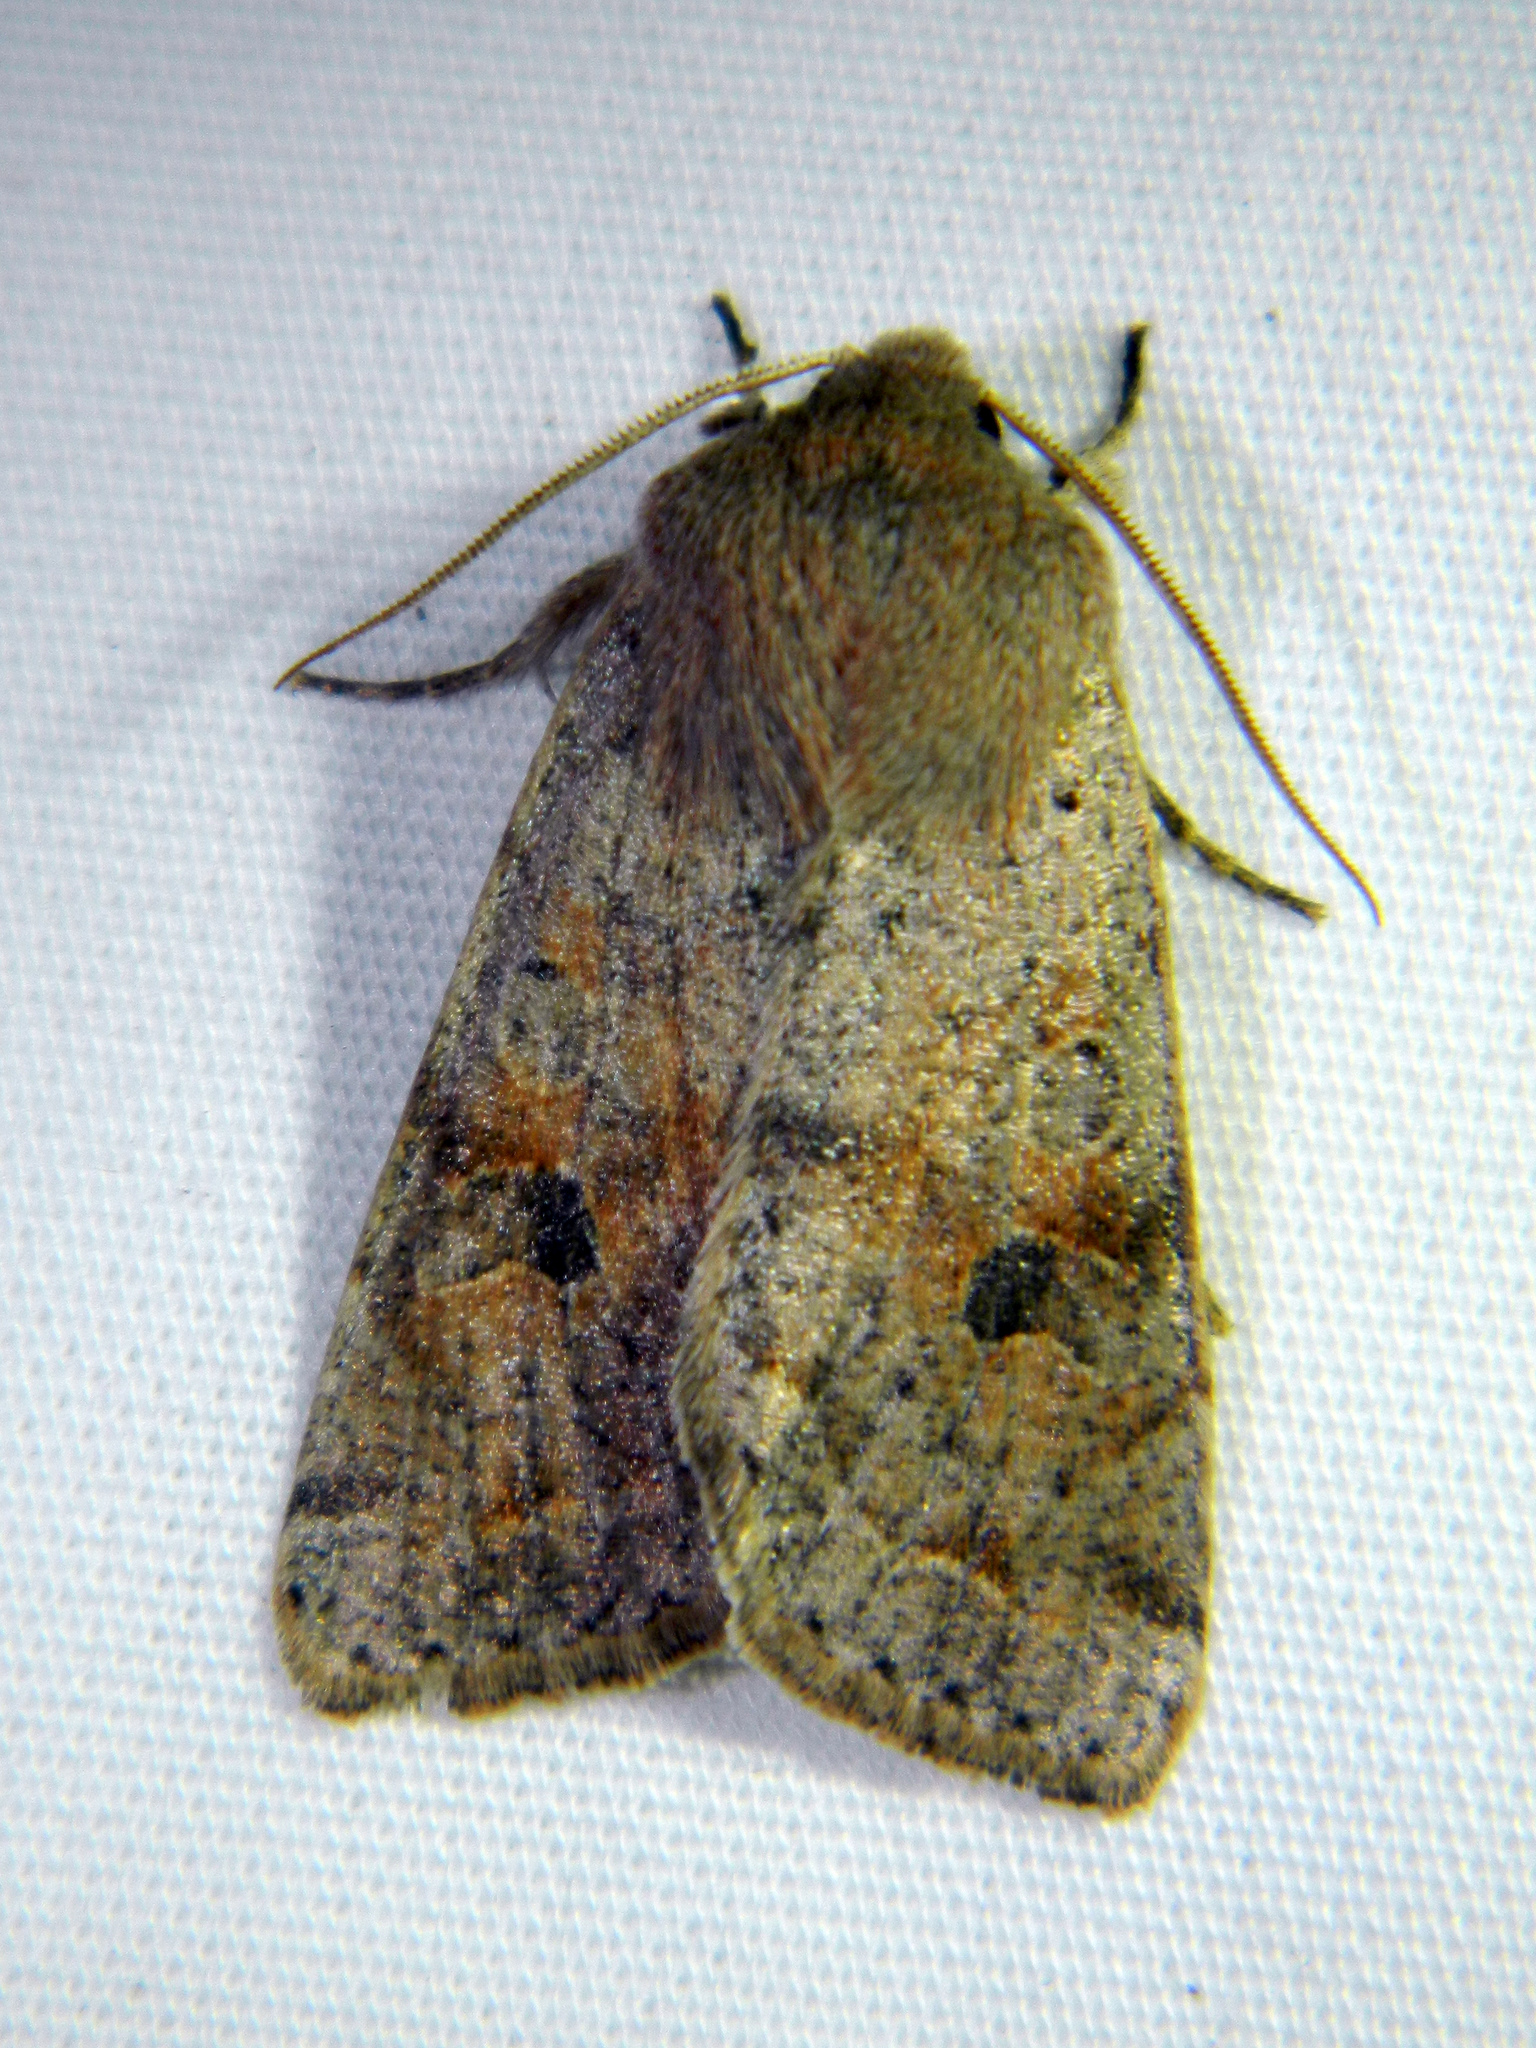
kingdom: Animalia
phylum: Arthropoda
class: Insecta
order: Lepidoptera
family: Noctuidae
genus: Orthosia
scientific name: Orthosia hibisci
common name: Green fruitworm
